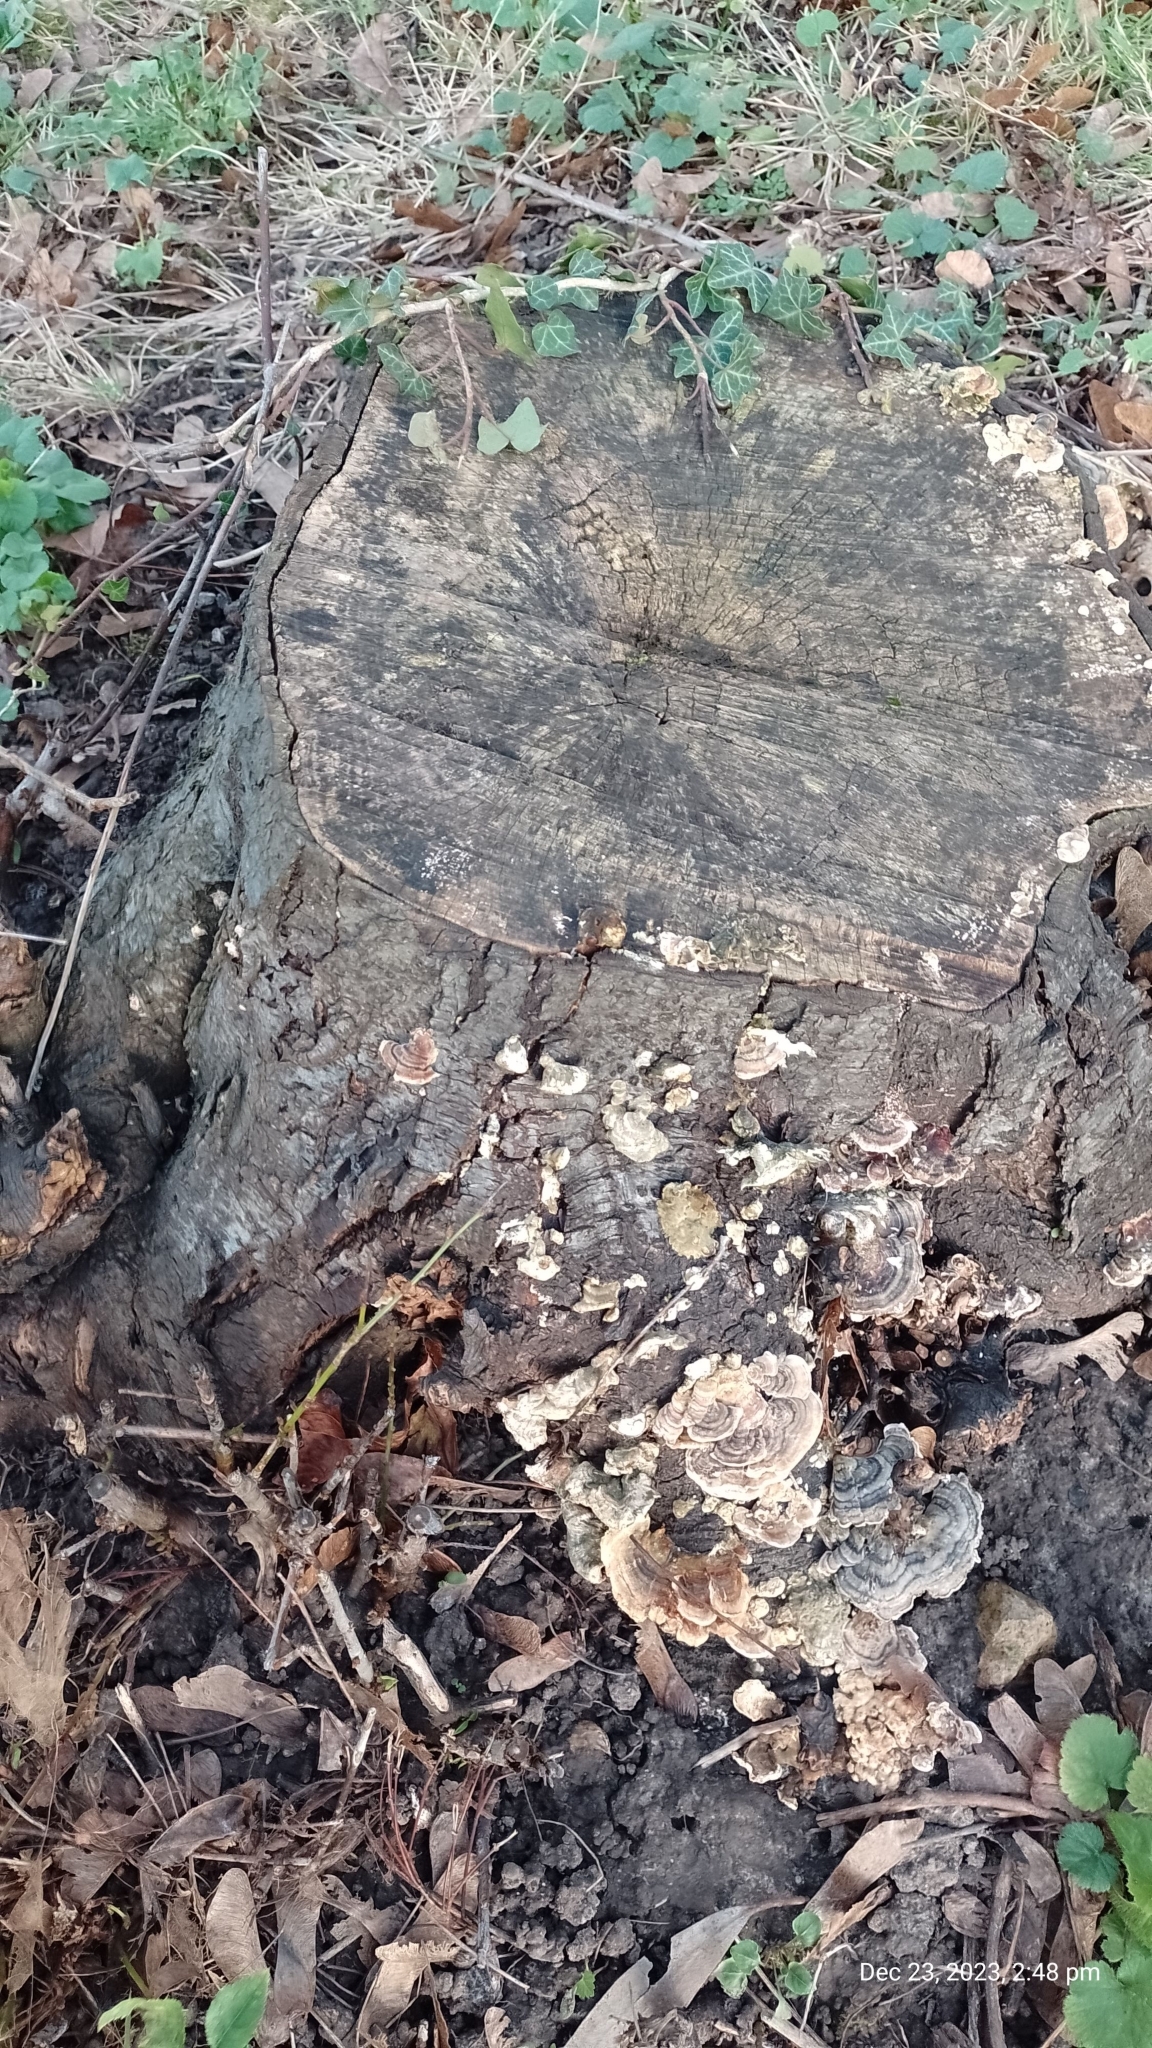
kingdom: Fungi
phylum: Basidiomycota
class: Agaricomycetes
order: Polyporales
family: Polyporaceae
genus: Trametes
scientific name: Trametes versicolor
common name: Turkeytail
